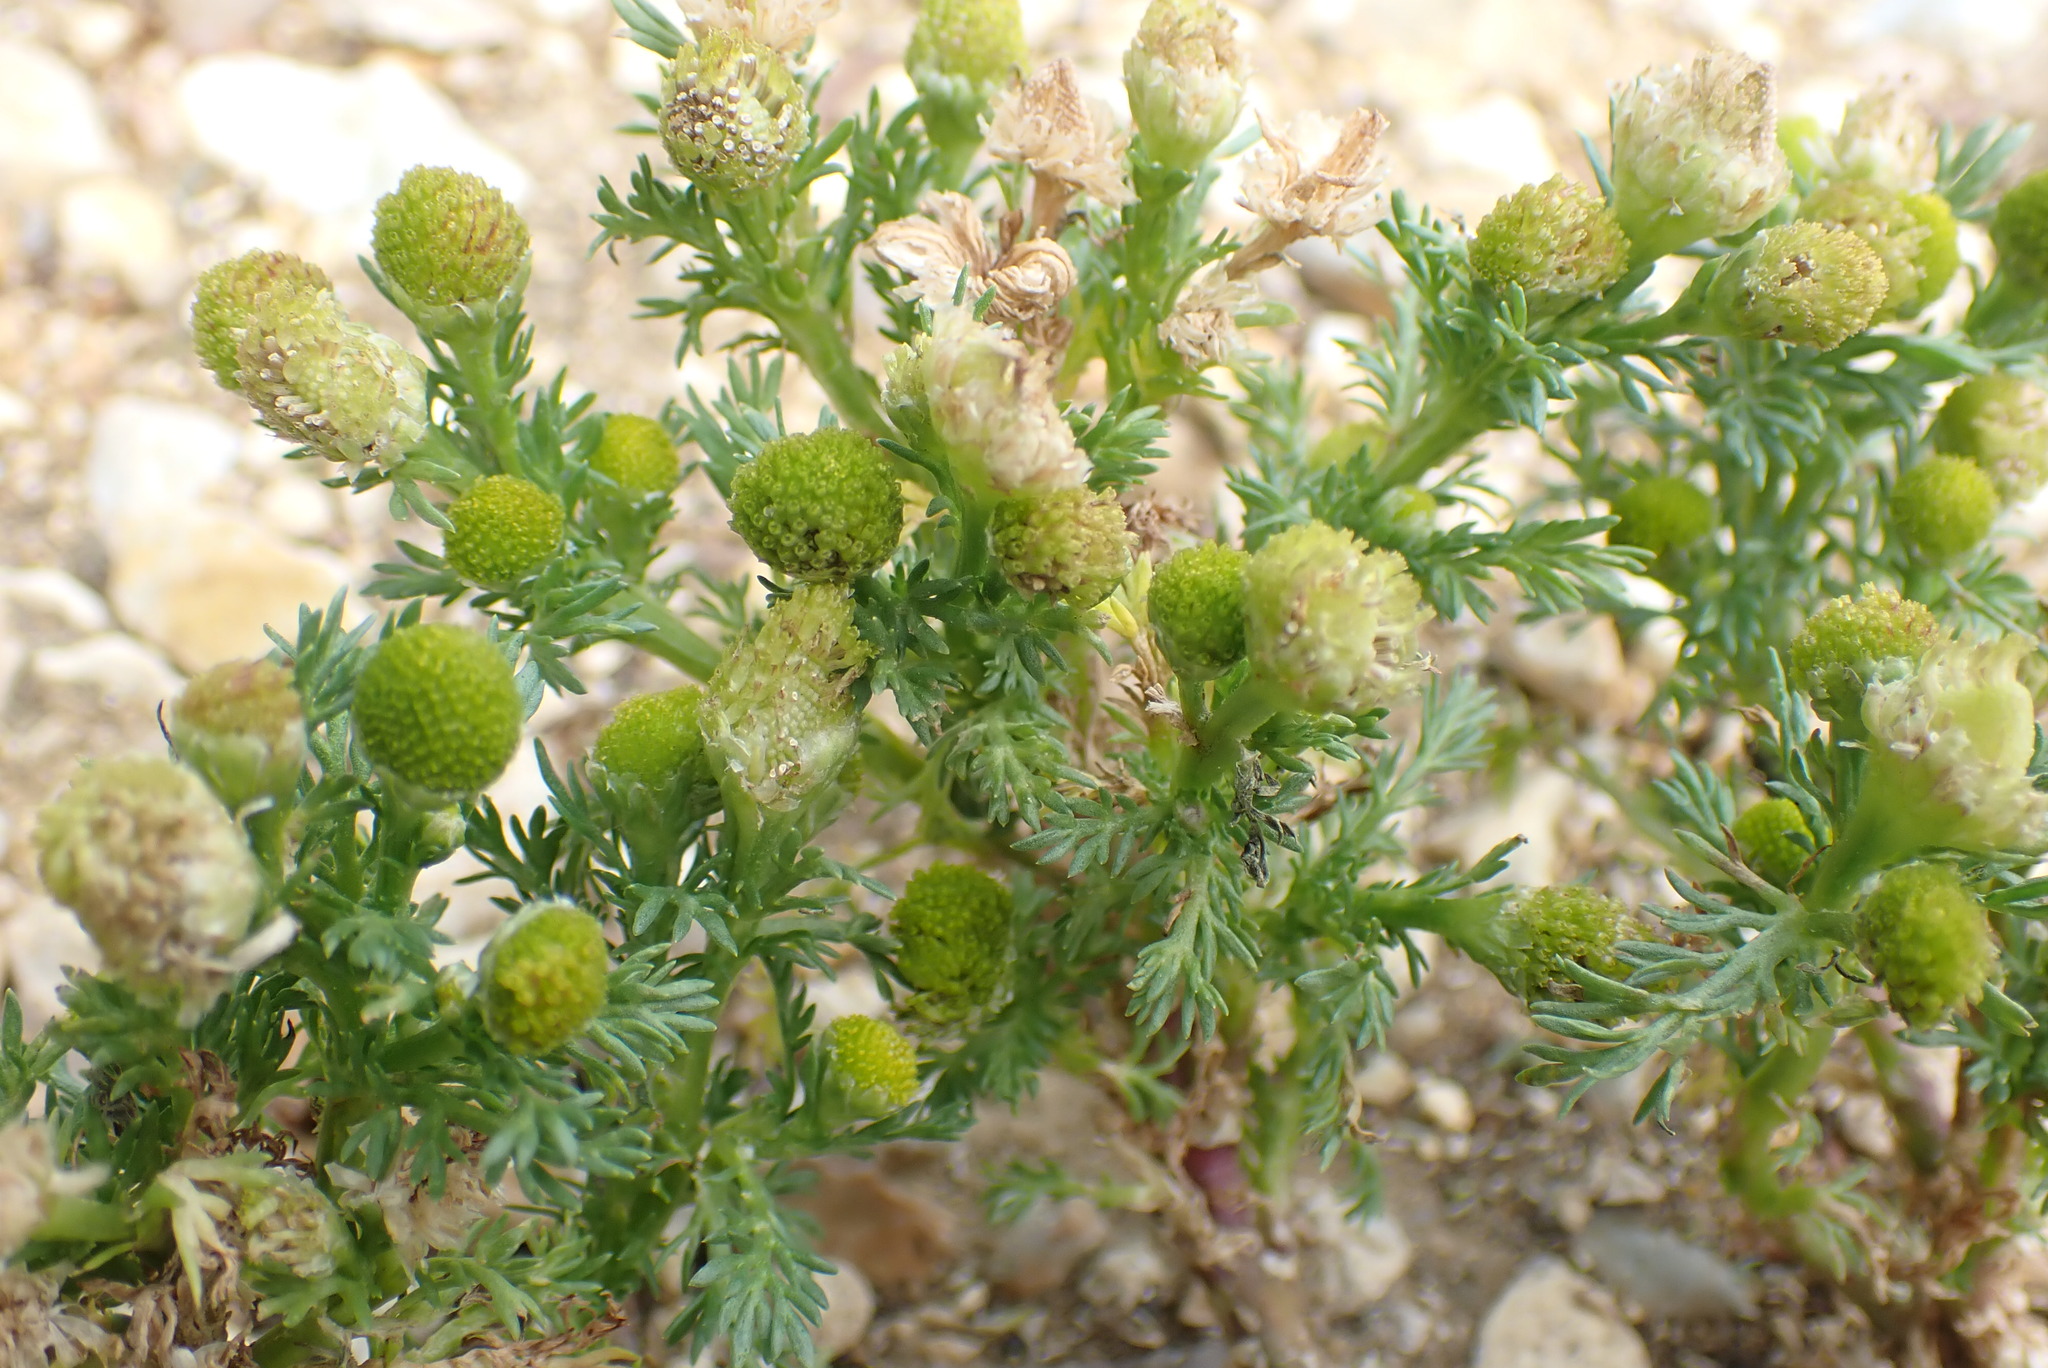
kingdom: Plantae
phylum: Tracheophyta
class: Magnoliopsida
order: Asterales
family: Asteraceae
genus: Matricaria
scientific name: Matricaria discoidea
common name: Disc mayweed
